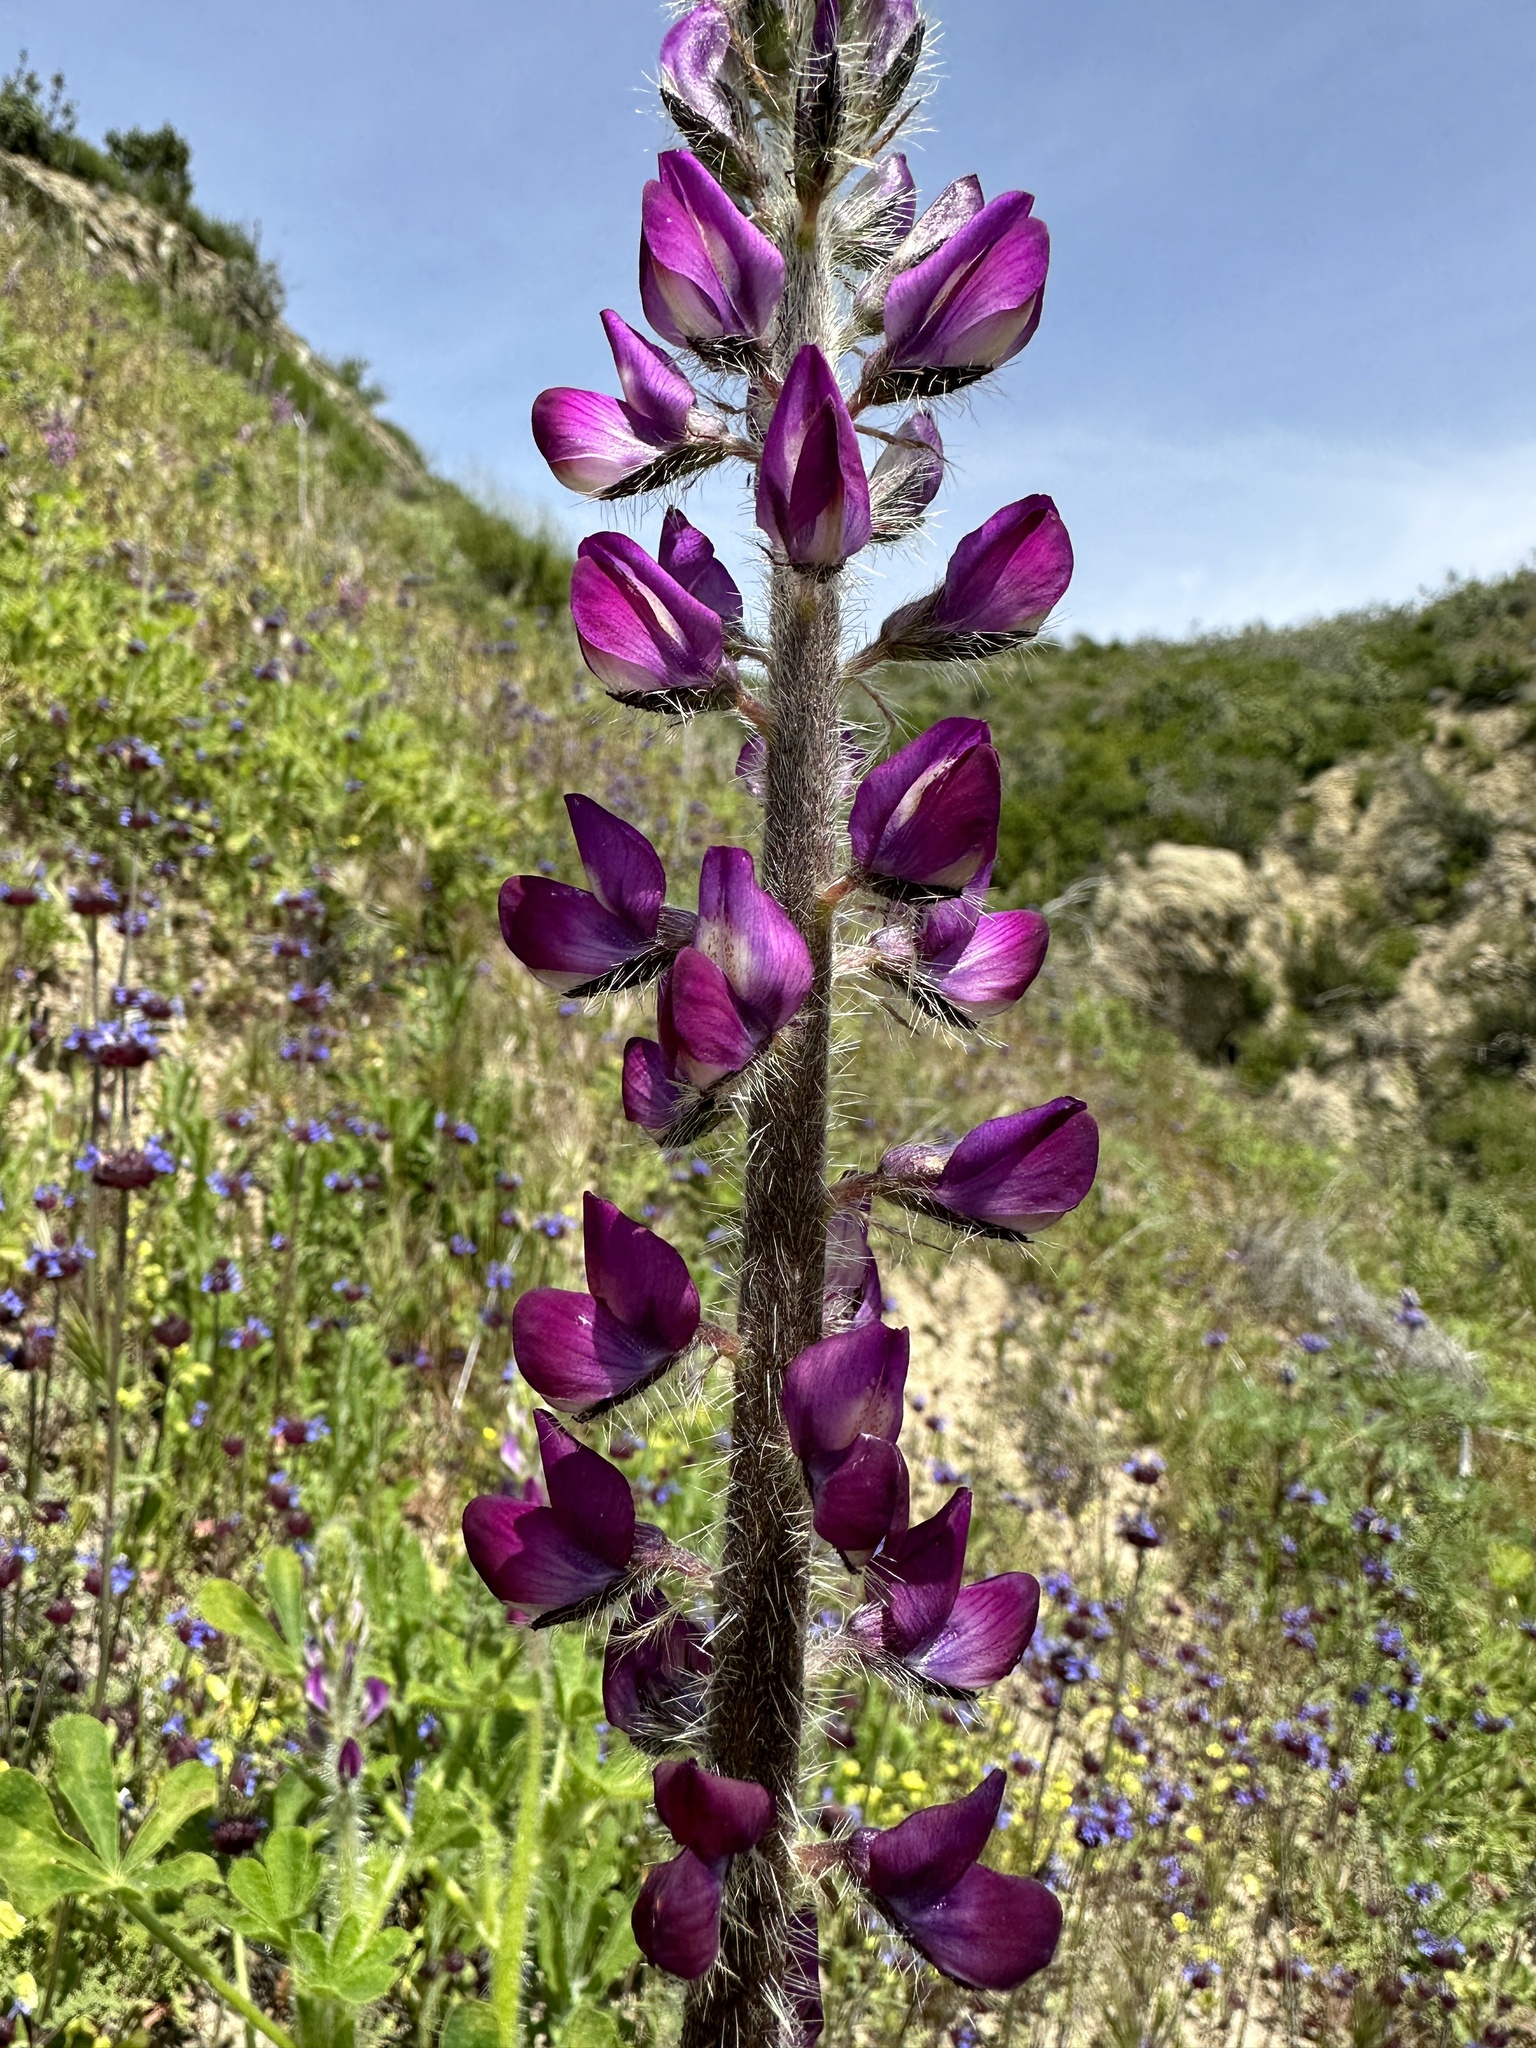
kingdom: Plantae
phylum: Tracheophyta
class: Magnoliopsida
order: Fabales
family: Fabaceae
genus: Lupinus
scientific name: Lupinus hirsutissimus
